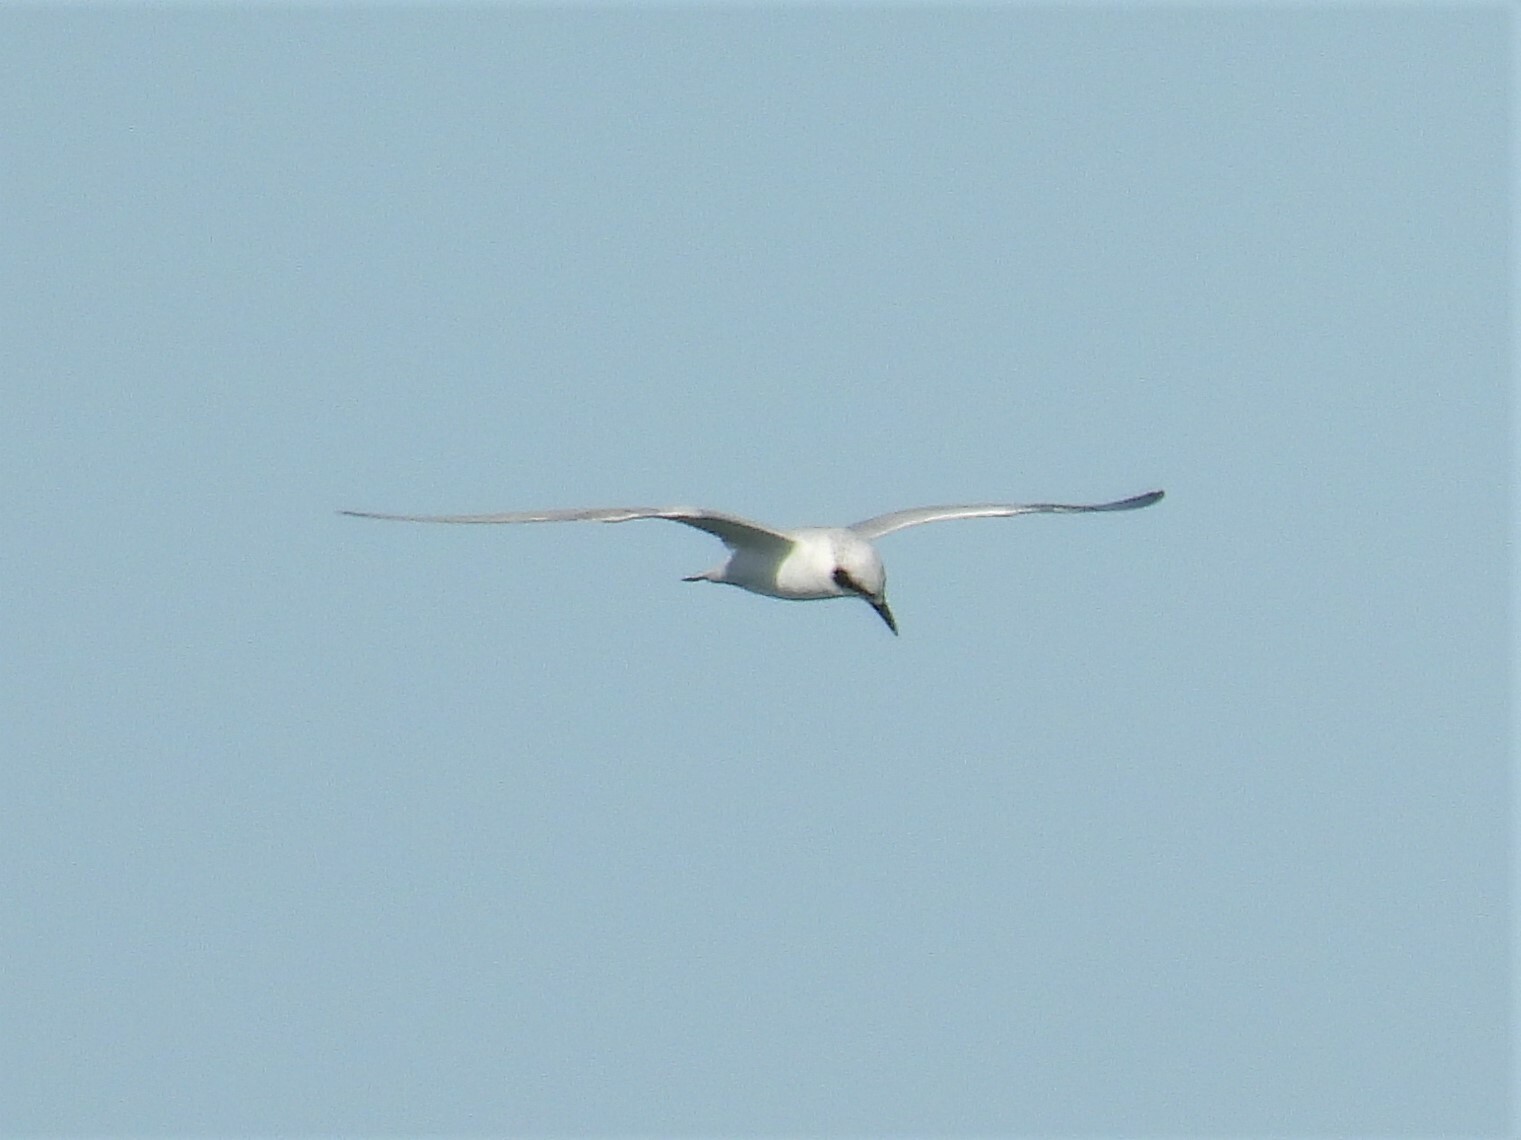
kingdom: Animalia
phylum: Chordata
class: Aves
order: Charadriiformes
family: Laridae
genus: Gelochelidon
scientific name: Gelochelidon macrotarsa
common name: Australian tern
